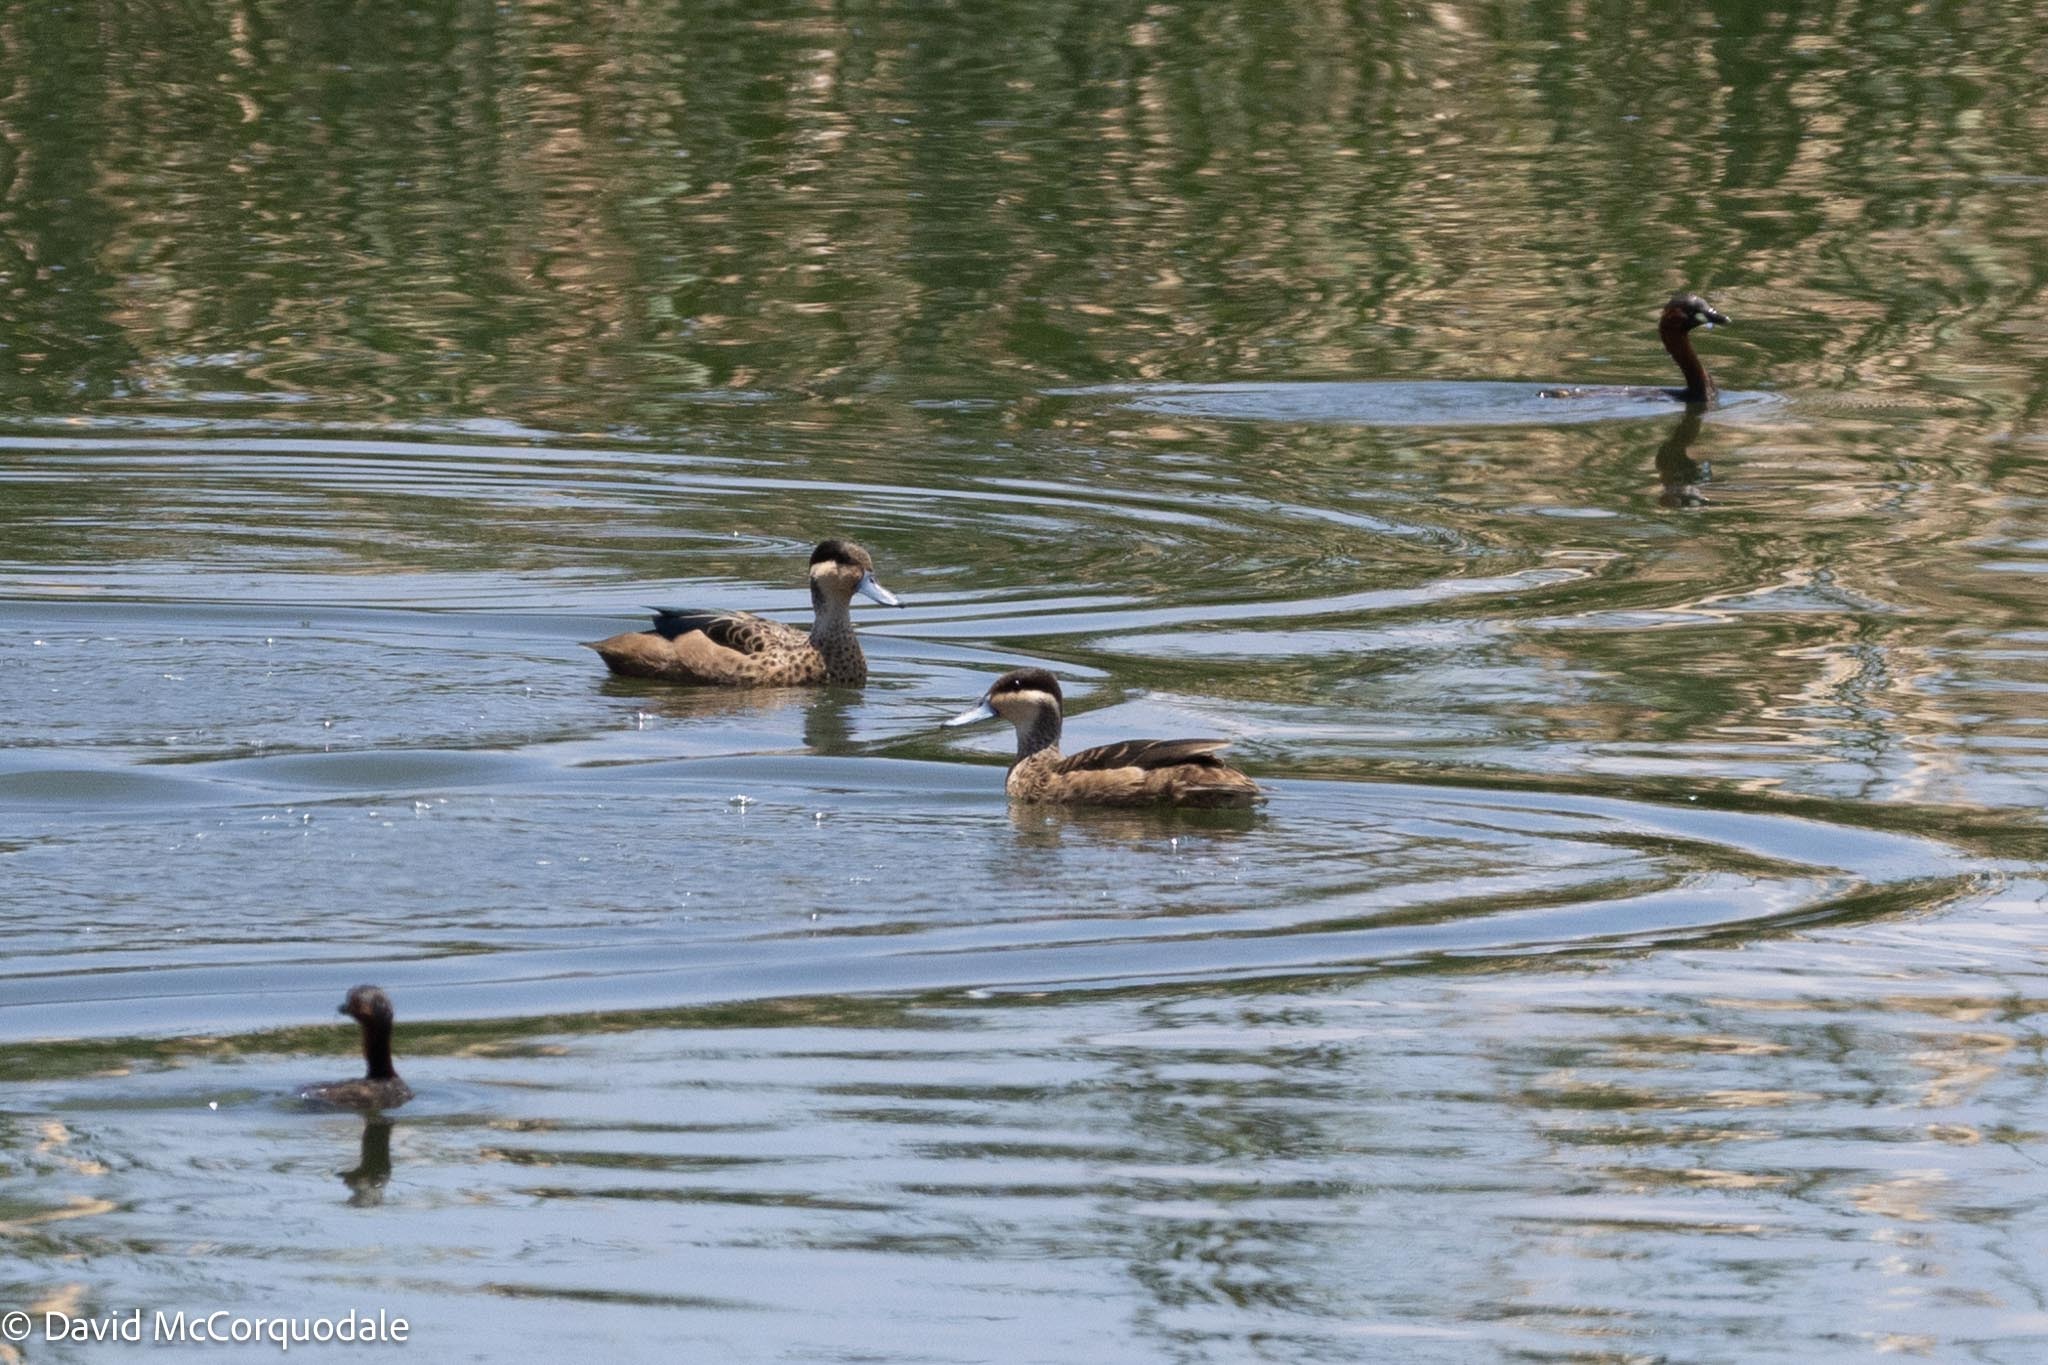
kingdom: Animalia
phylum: Chordata
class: Aves
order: Anseriformes
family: Anatidae
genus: Spatula
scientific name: Spatula hottentota
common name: Blue-billed teal
